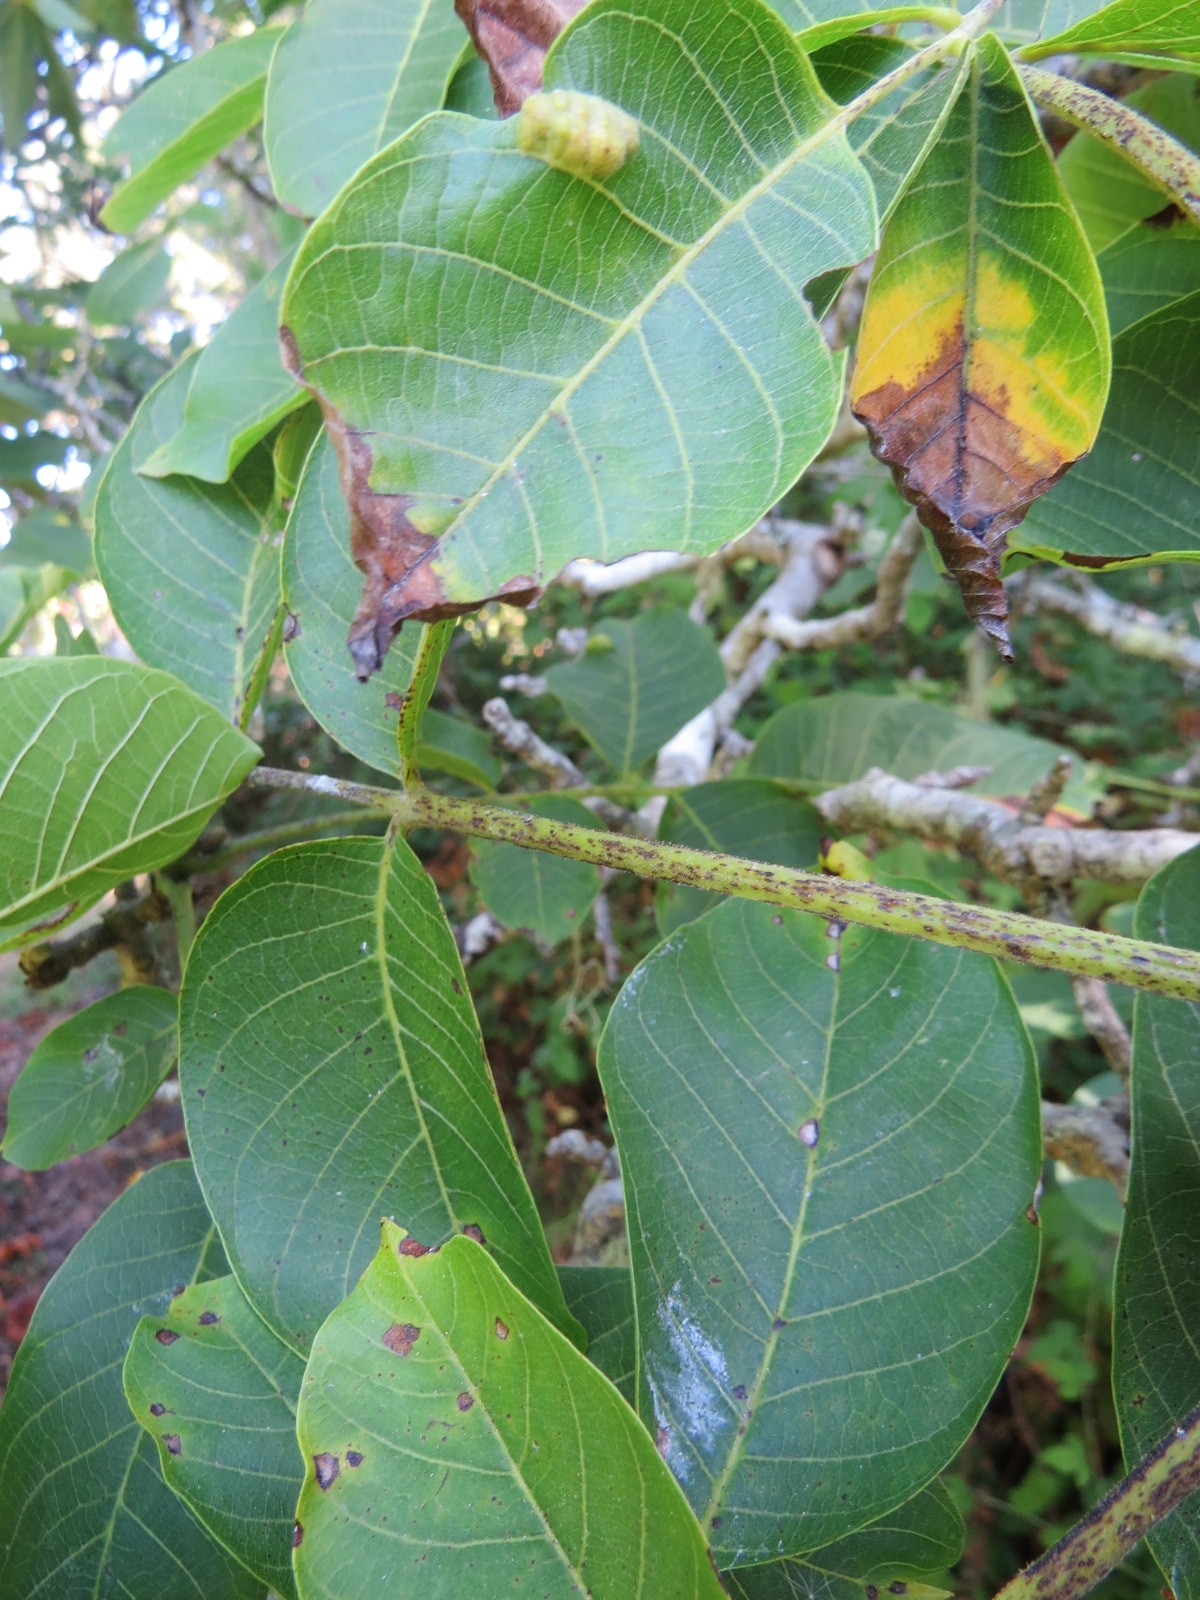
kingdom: Animalia
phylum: Arthropoda
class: Arachnida
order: Trombidiformes
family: Eriophyidae
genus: Aceria
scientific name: Aceria erinea
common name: Persian walnut erineum mite
